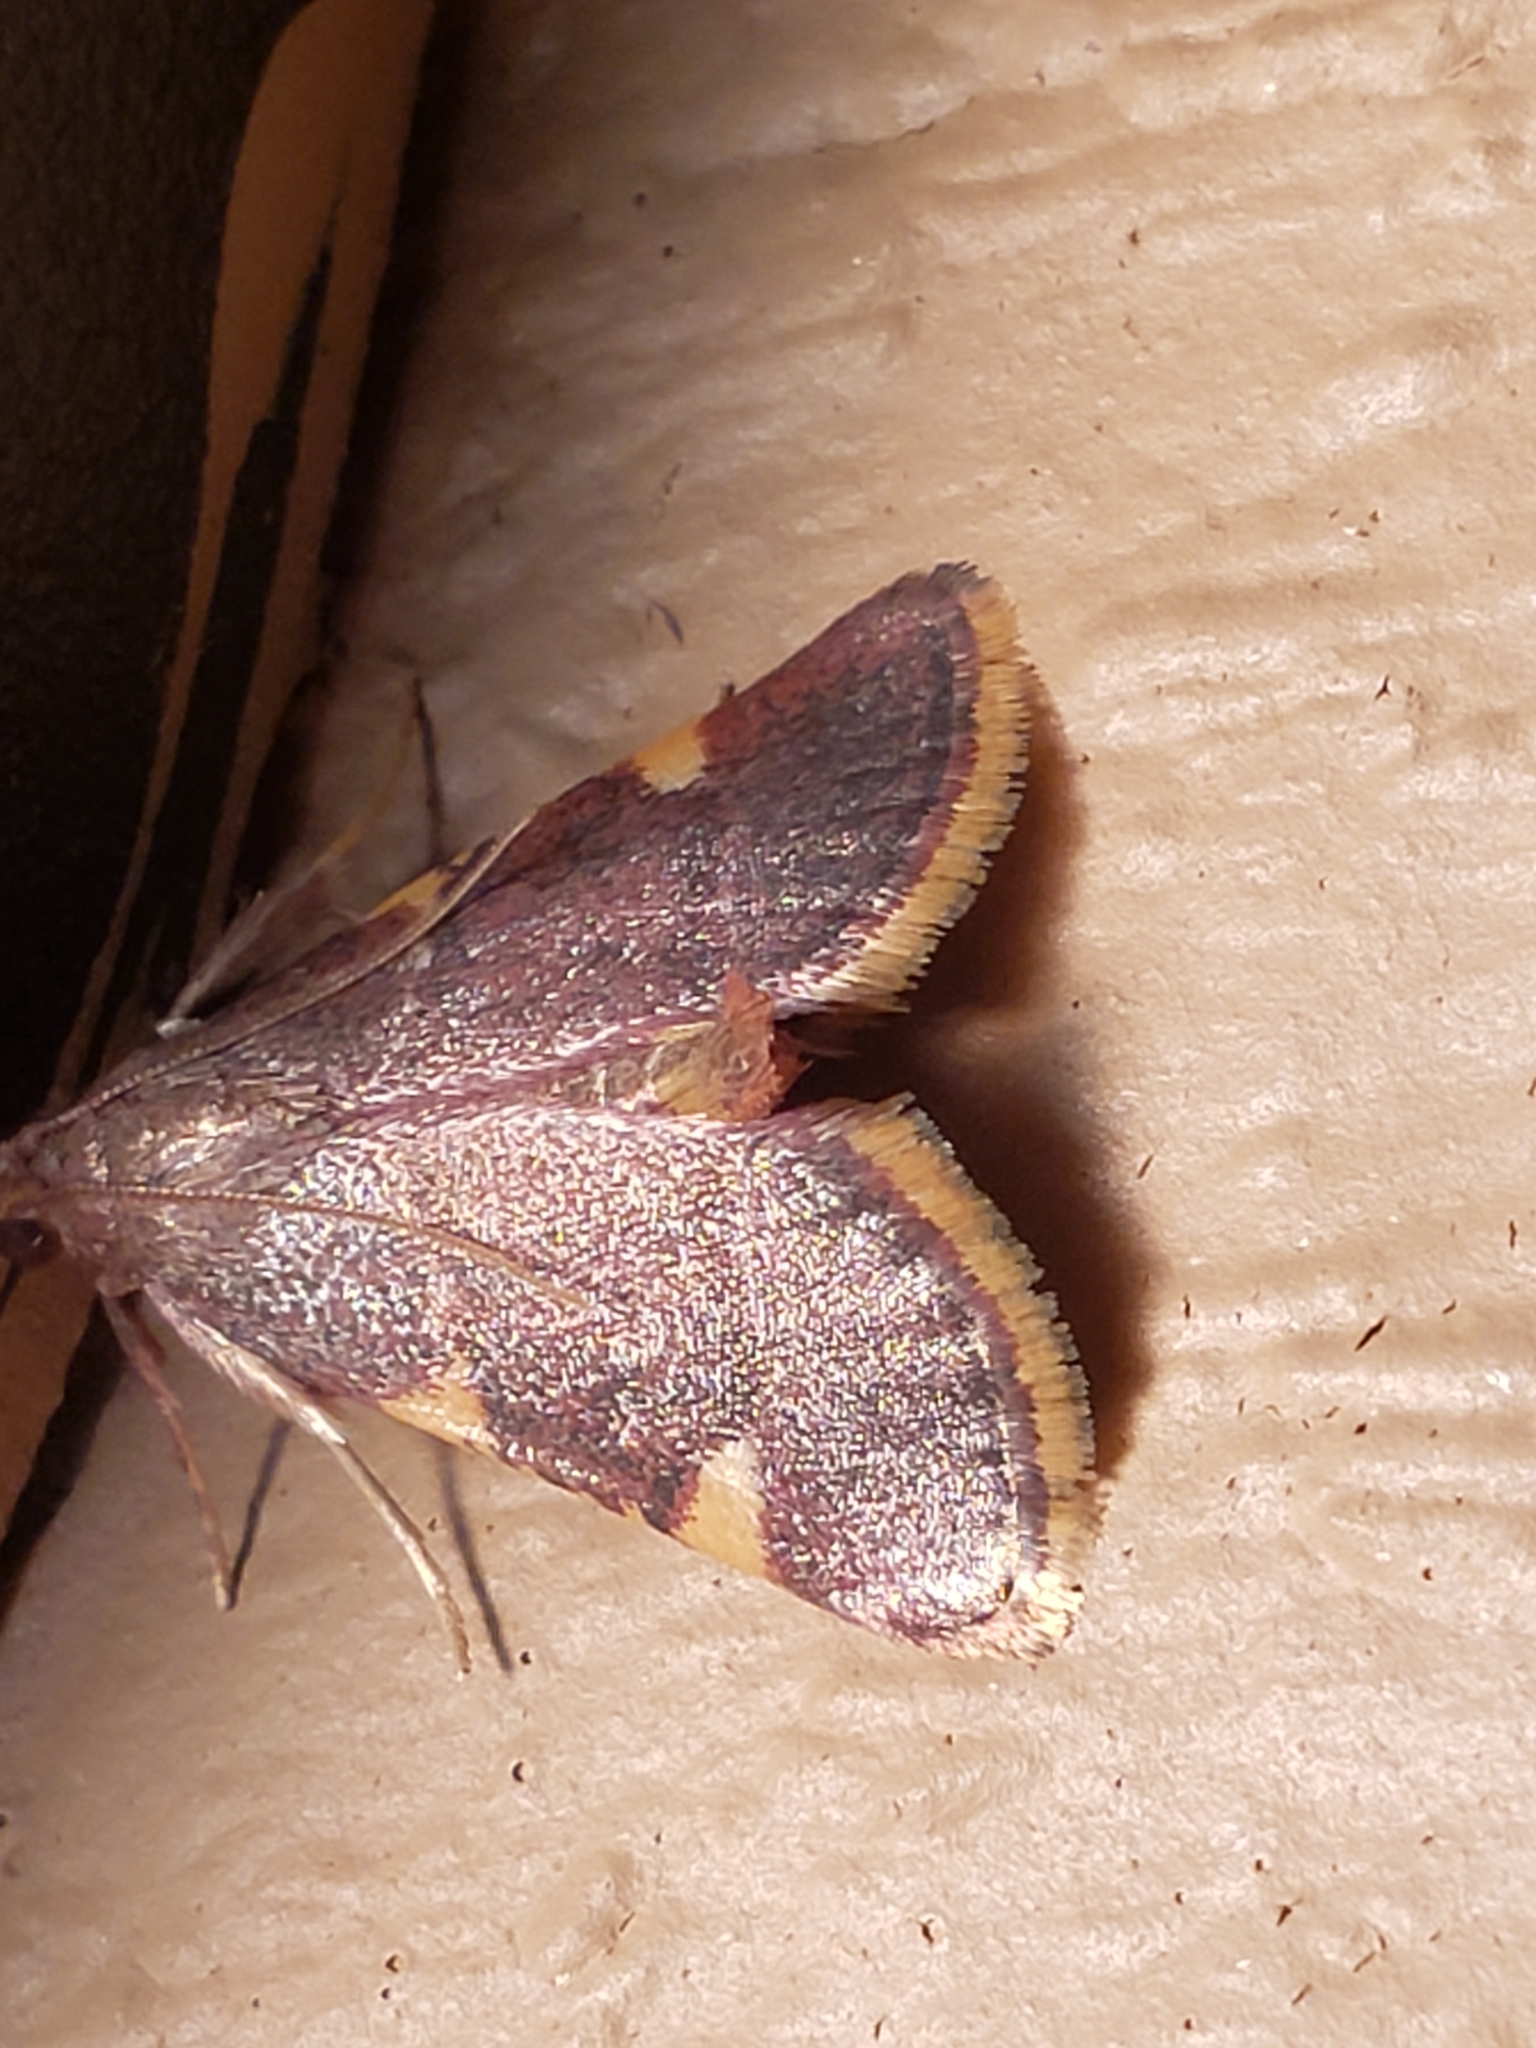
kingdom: Animalia
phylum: Arthropoda
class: Insecta
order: Lepidoptera
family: Pyralidae
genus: Hypsopygia
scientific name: Hypsopygia olinalis
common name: Yellow-fringed dolichomia moth
